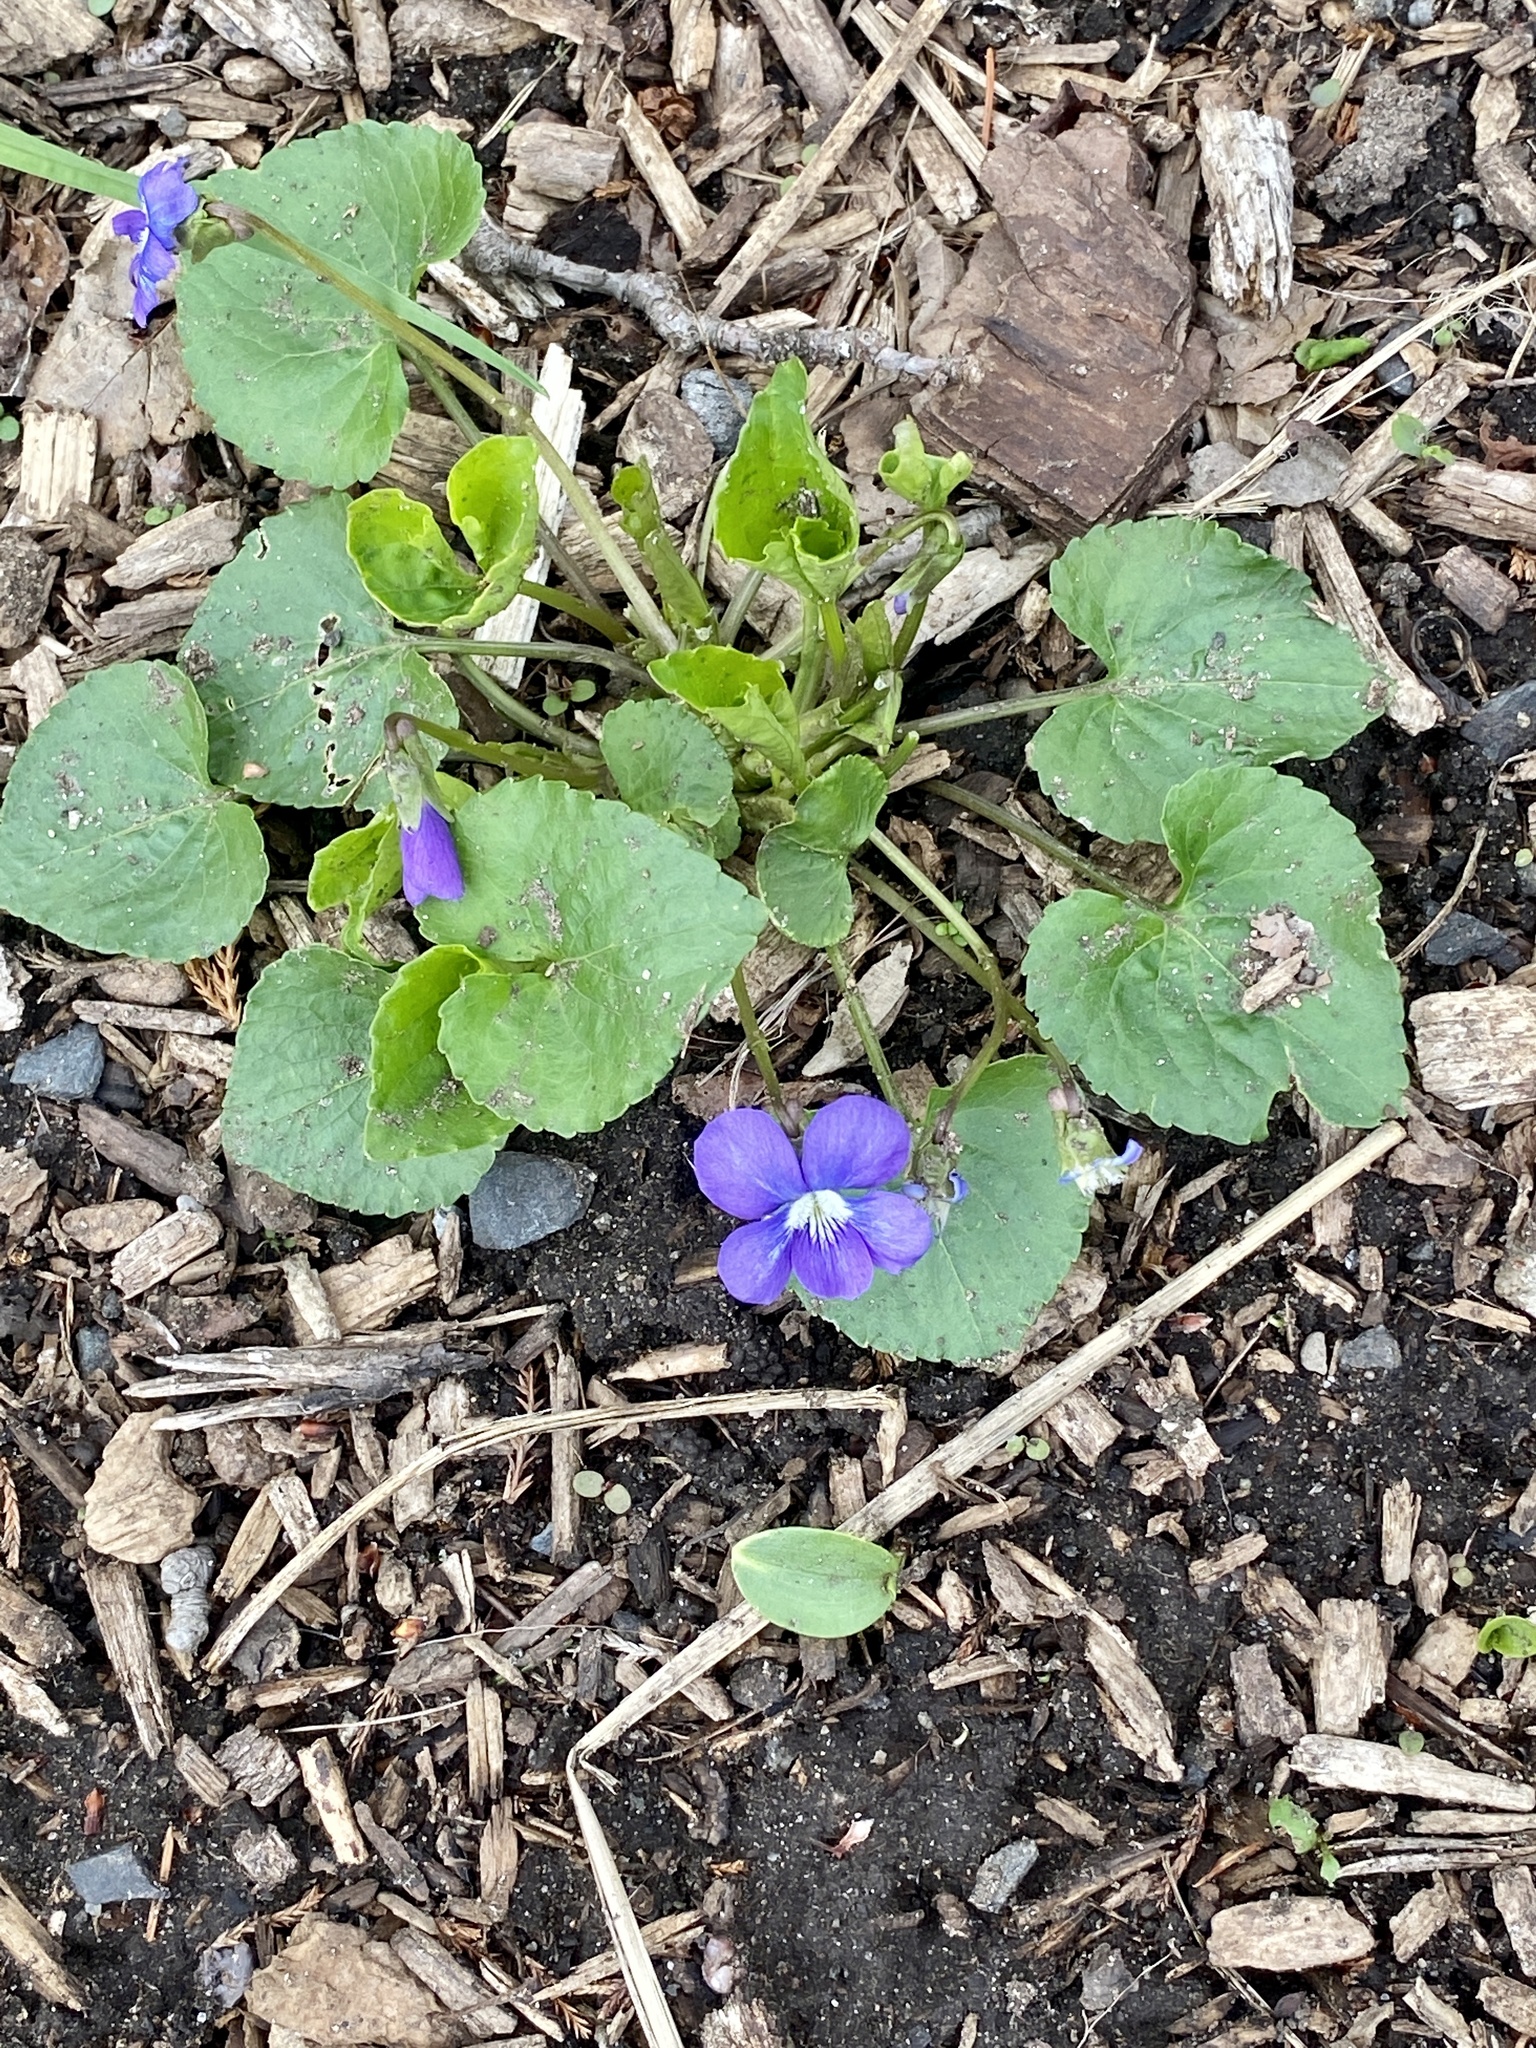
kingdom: Plantae
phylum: Tracheophyta
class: Magnoliopsida
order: Malpighiales
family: Violaceae
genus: Viola
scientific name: Viola sororia
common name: Dooryard violet
